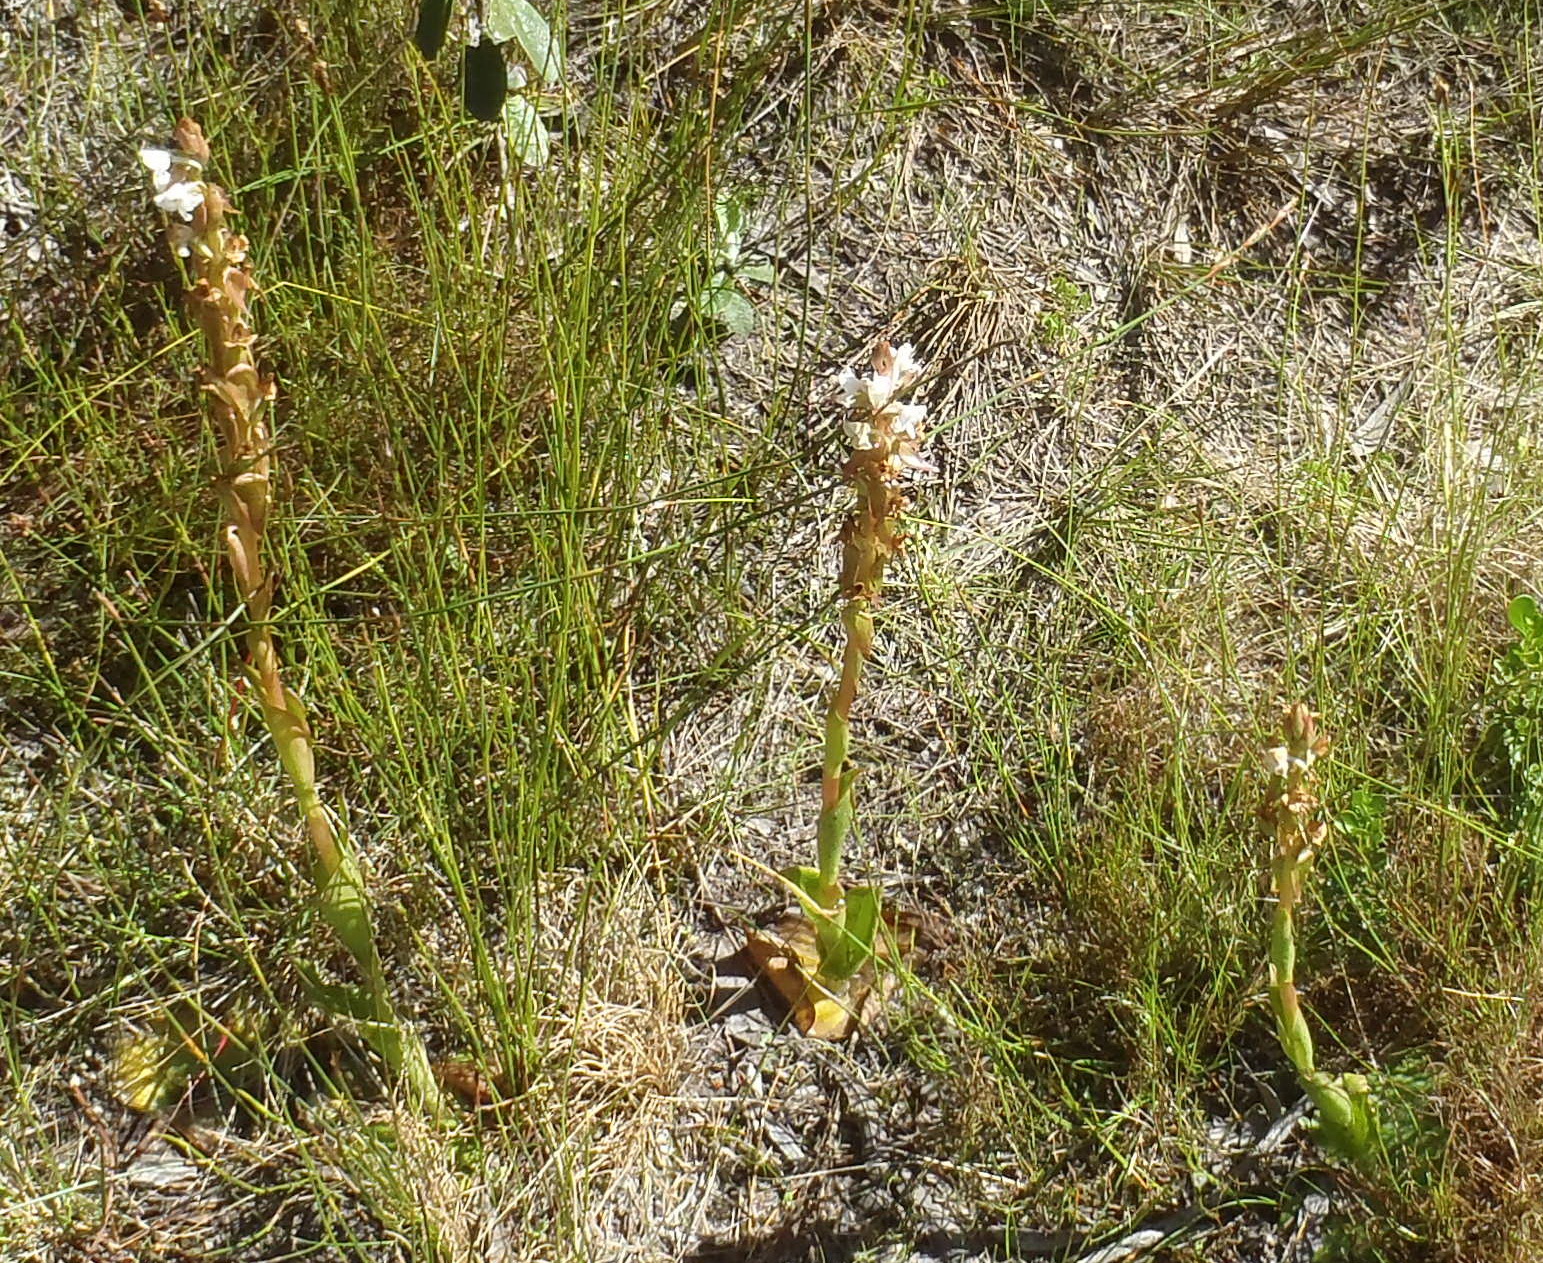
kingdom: Plantae
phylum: Tracheophyta
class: Liliopsida
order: Asparagales
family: Orchidaceae
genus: Satyrium
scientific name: Satyrium acuminatum
